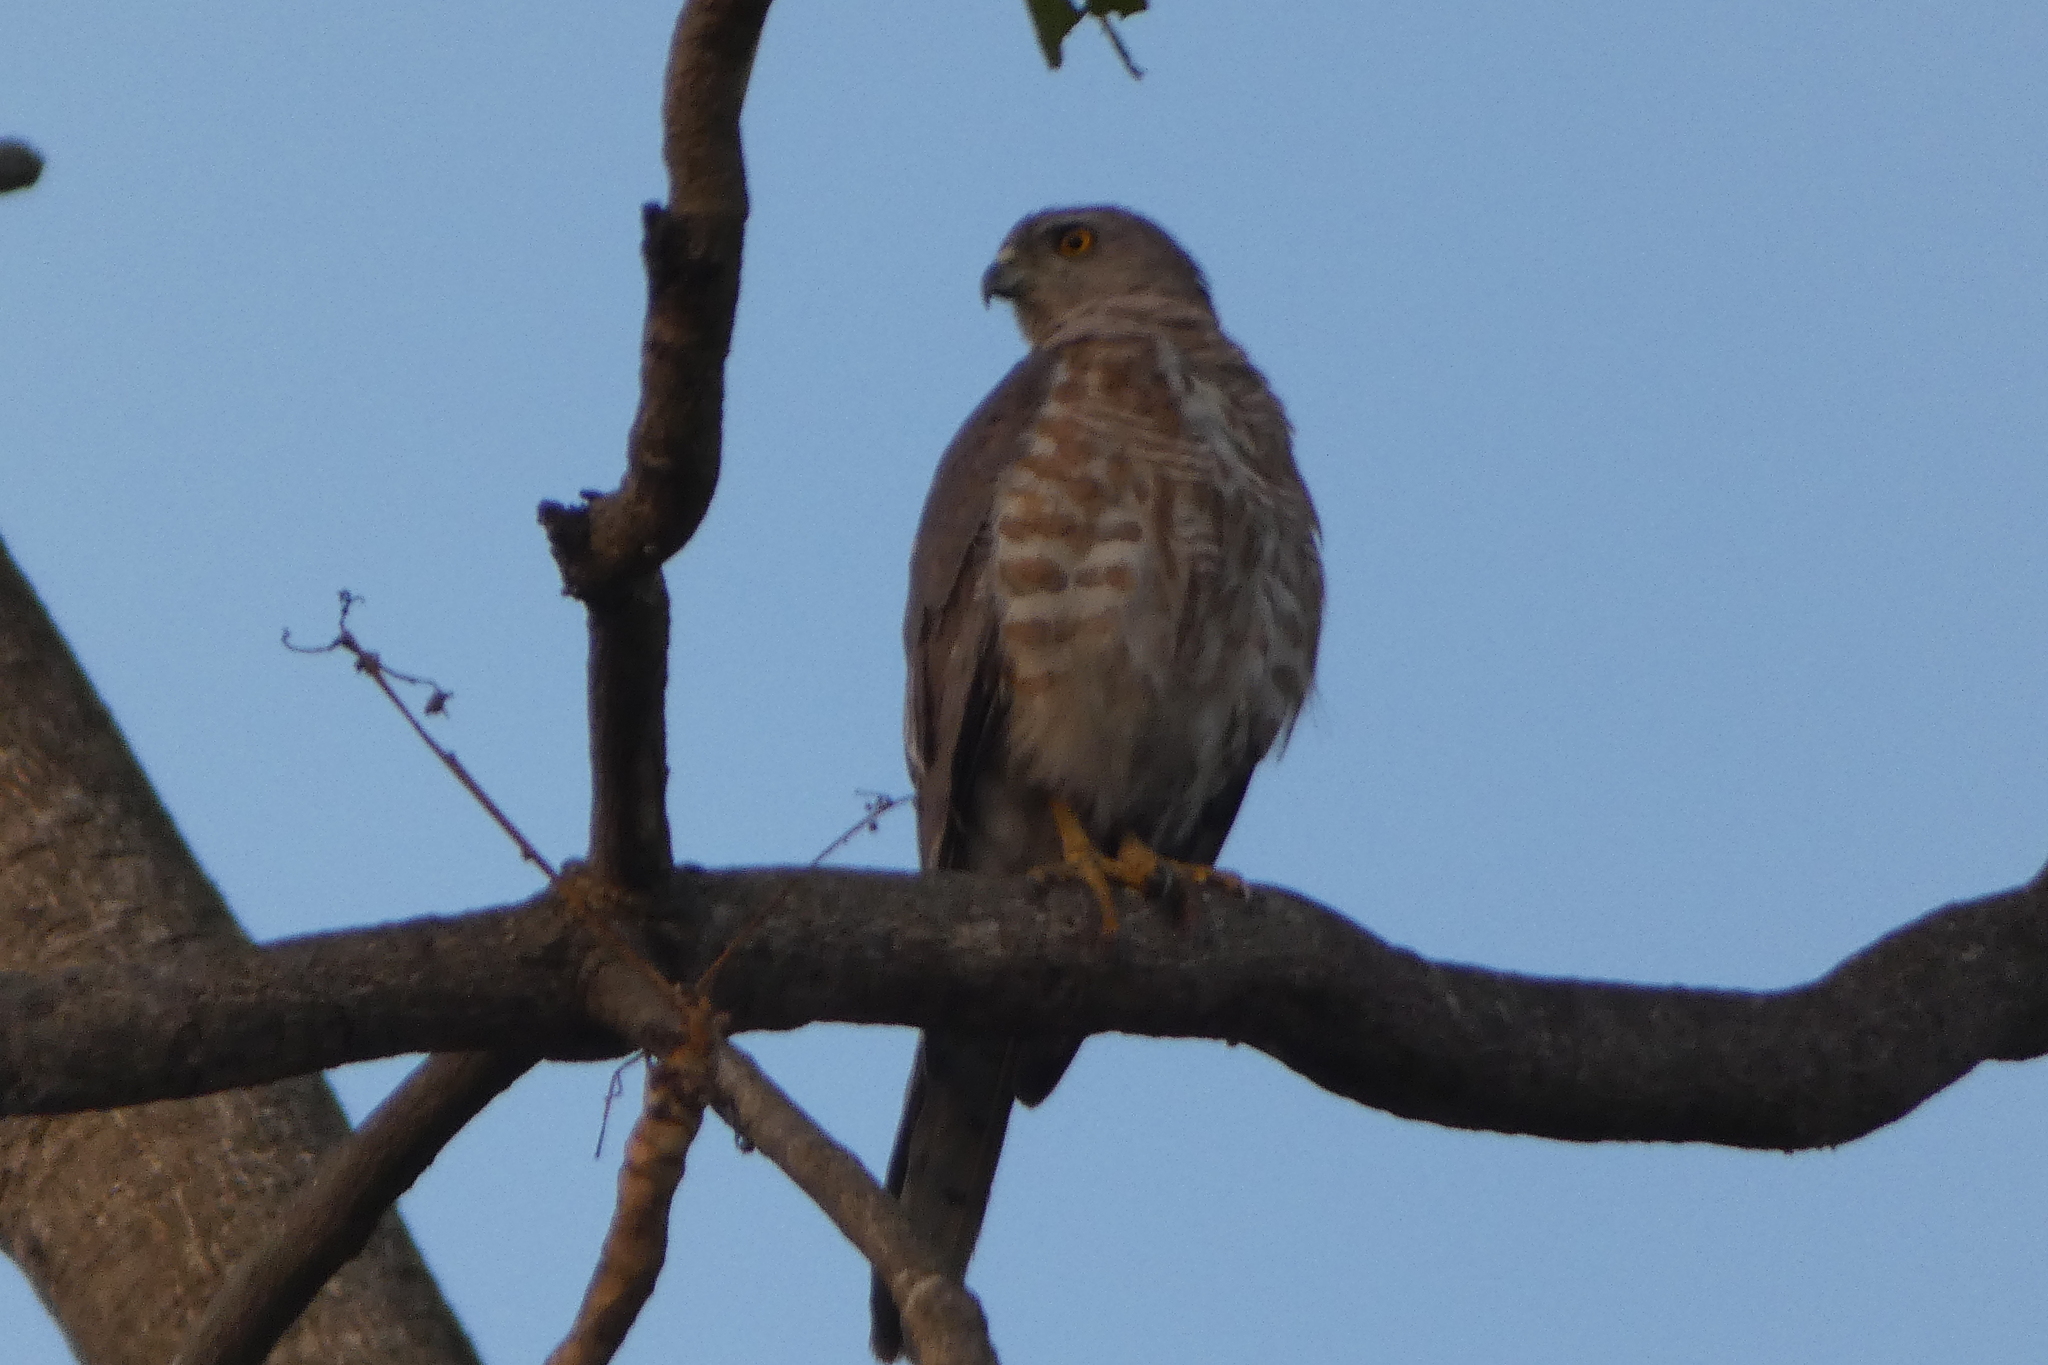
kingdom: Animalia
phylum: Chordata
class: Aves
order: Accipitriformes
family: Accipitridae
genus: Accipiter
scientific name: Accipiter badius
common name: Shikra
